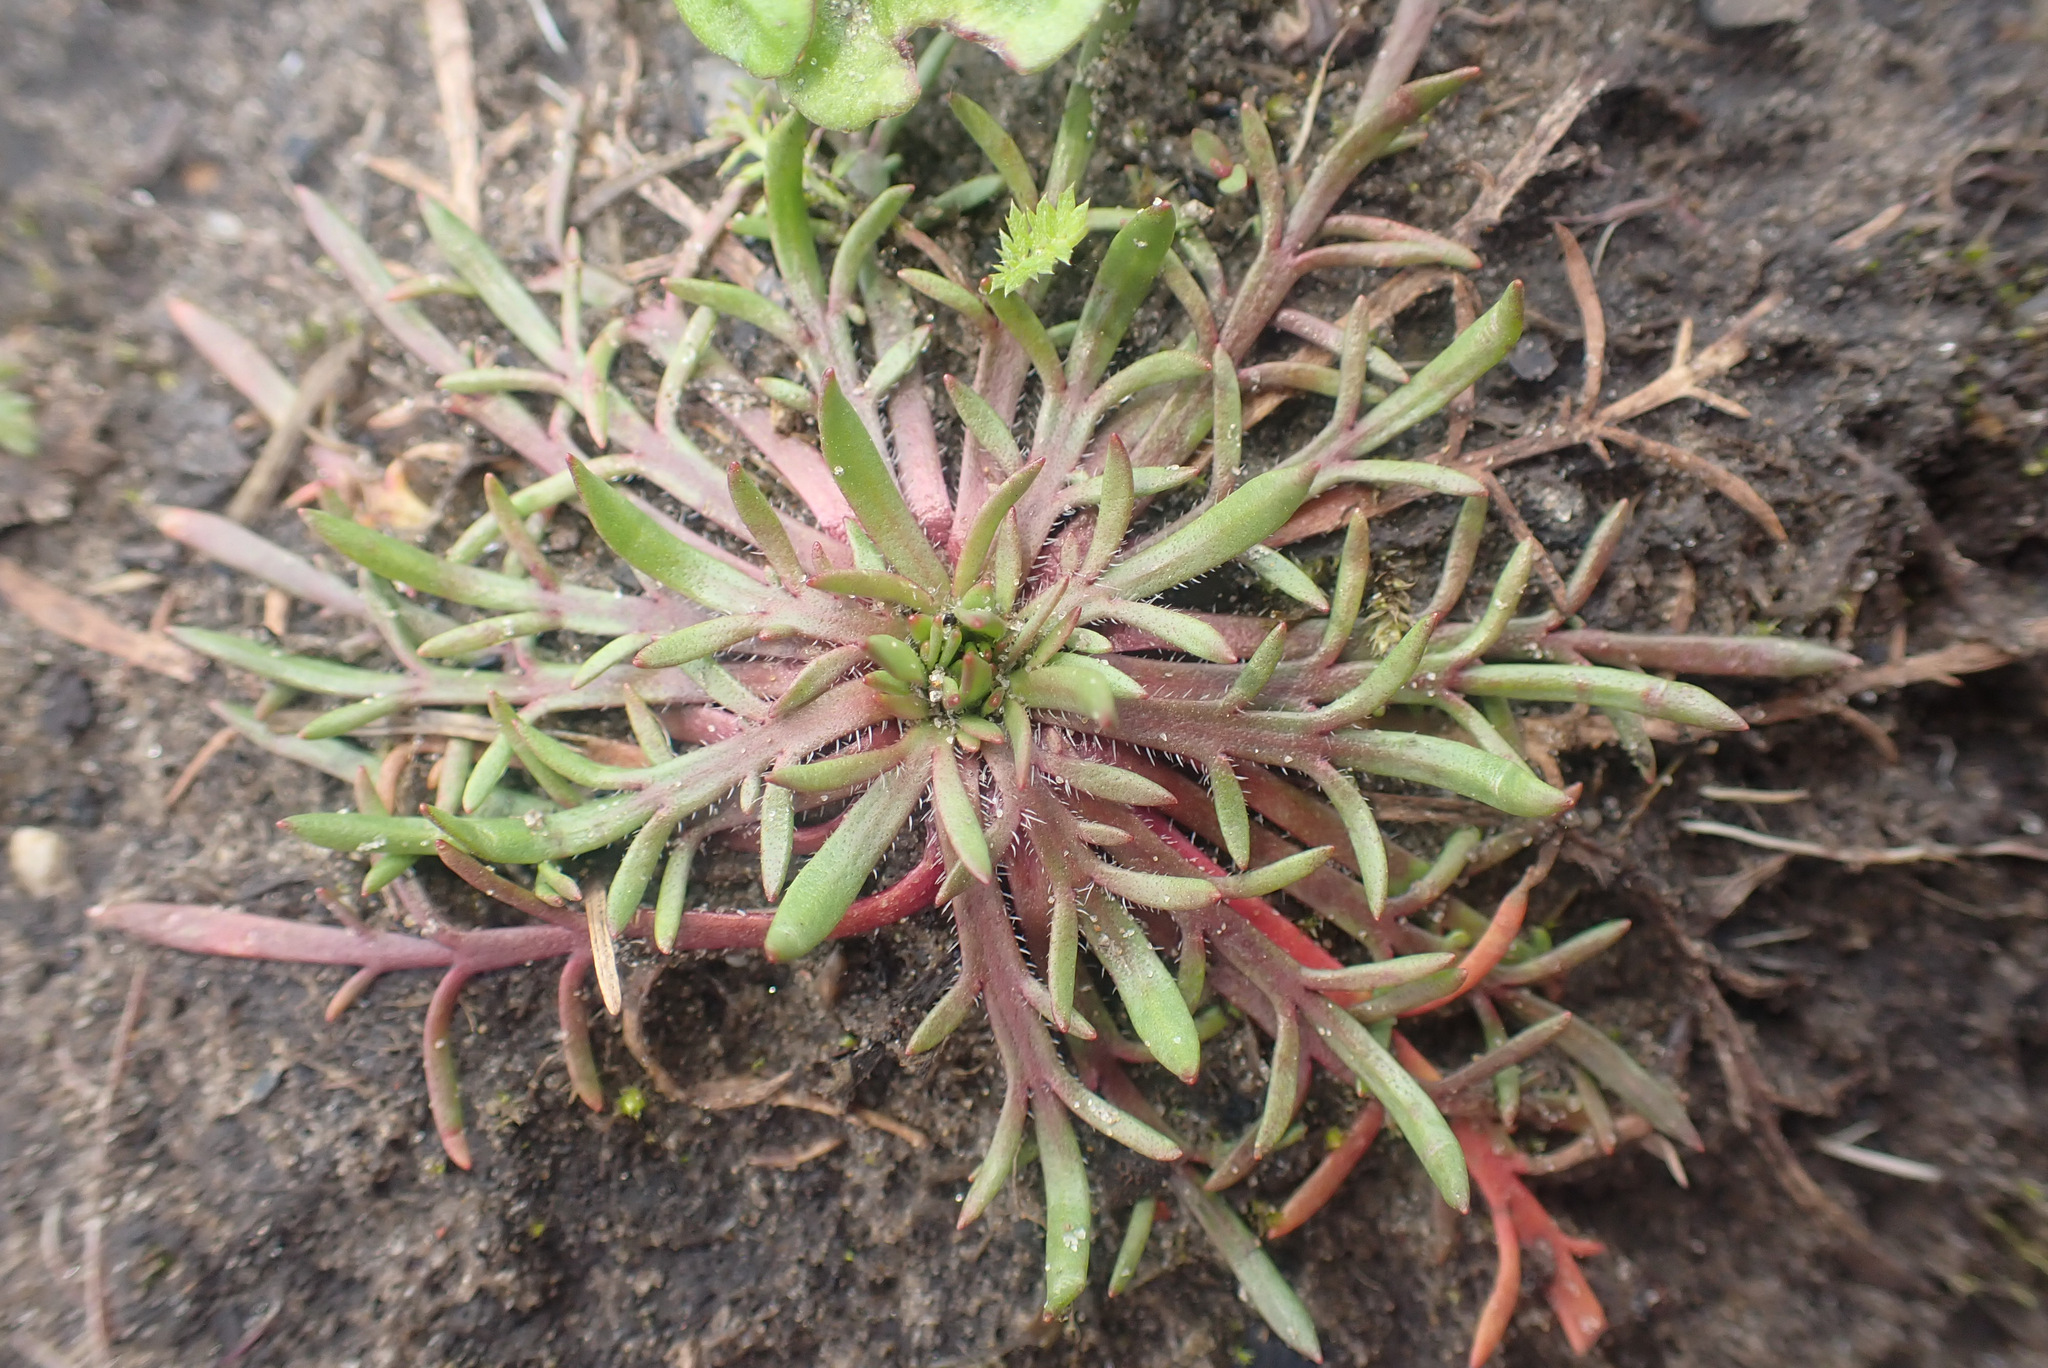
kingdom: Plantae
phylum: Tracheophyta
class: Magnoliopsida
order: Lamiales
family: Plantaginaceae
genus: Plantago
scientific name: Plantago coronopus
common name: Buck's-horn plantain
